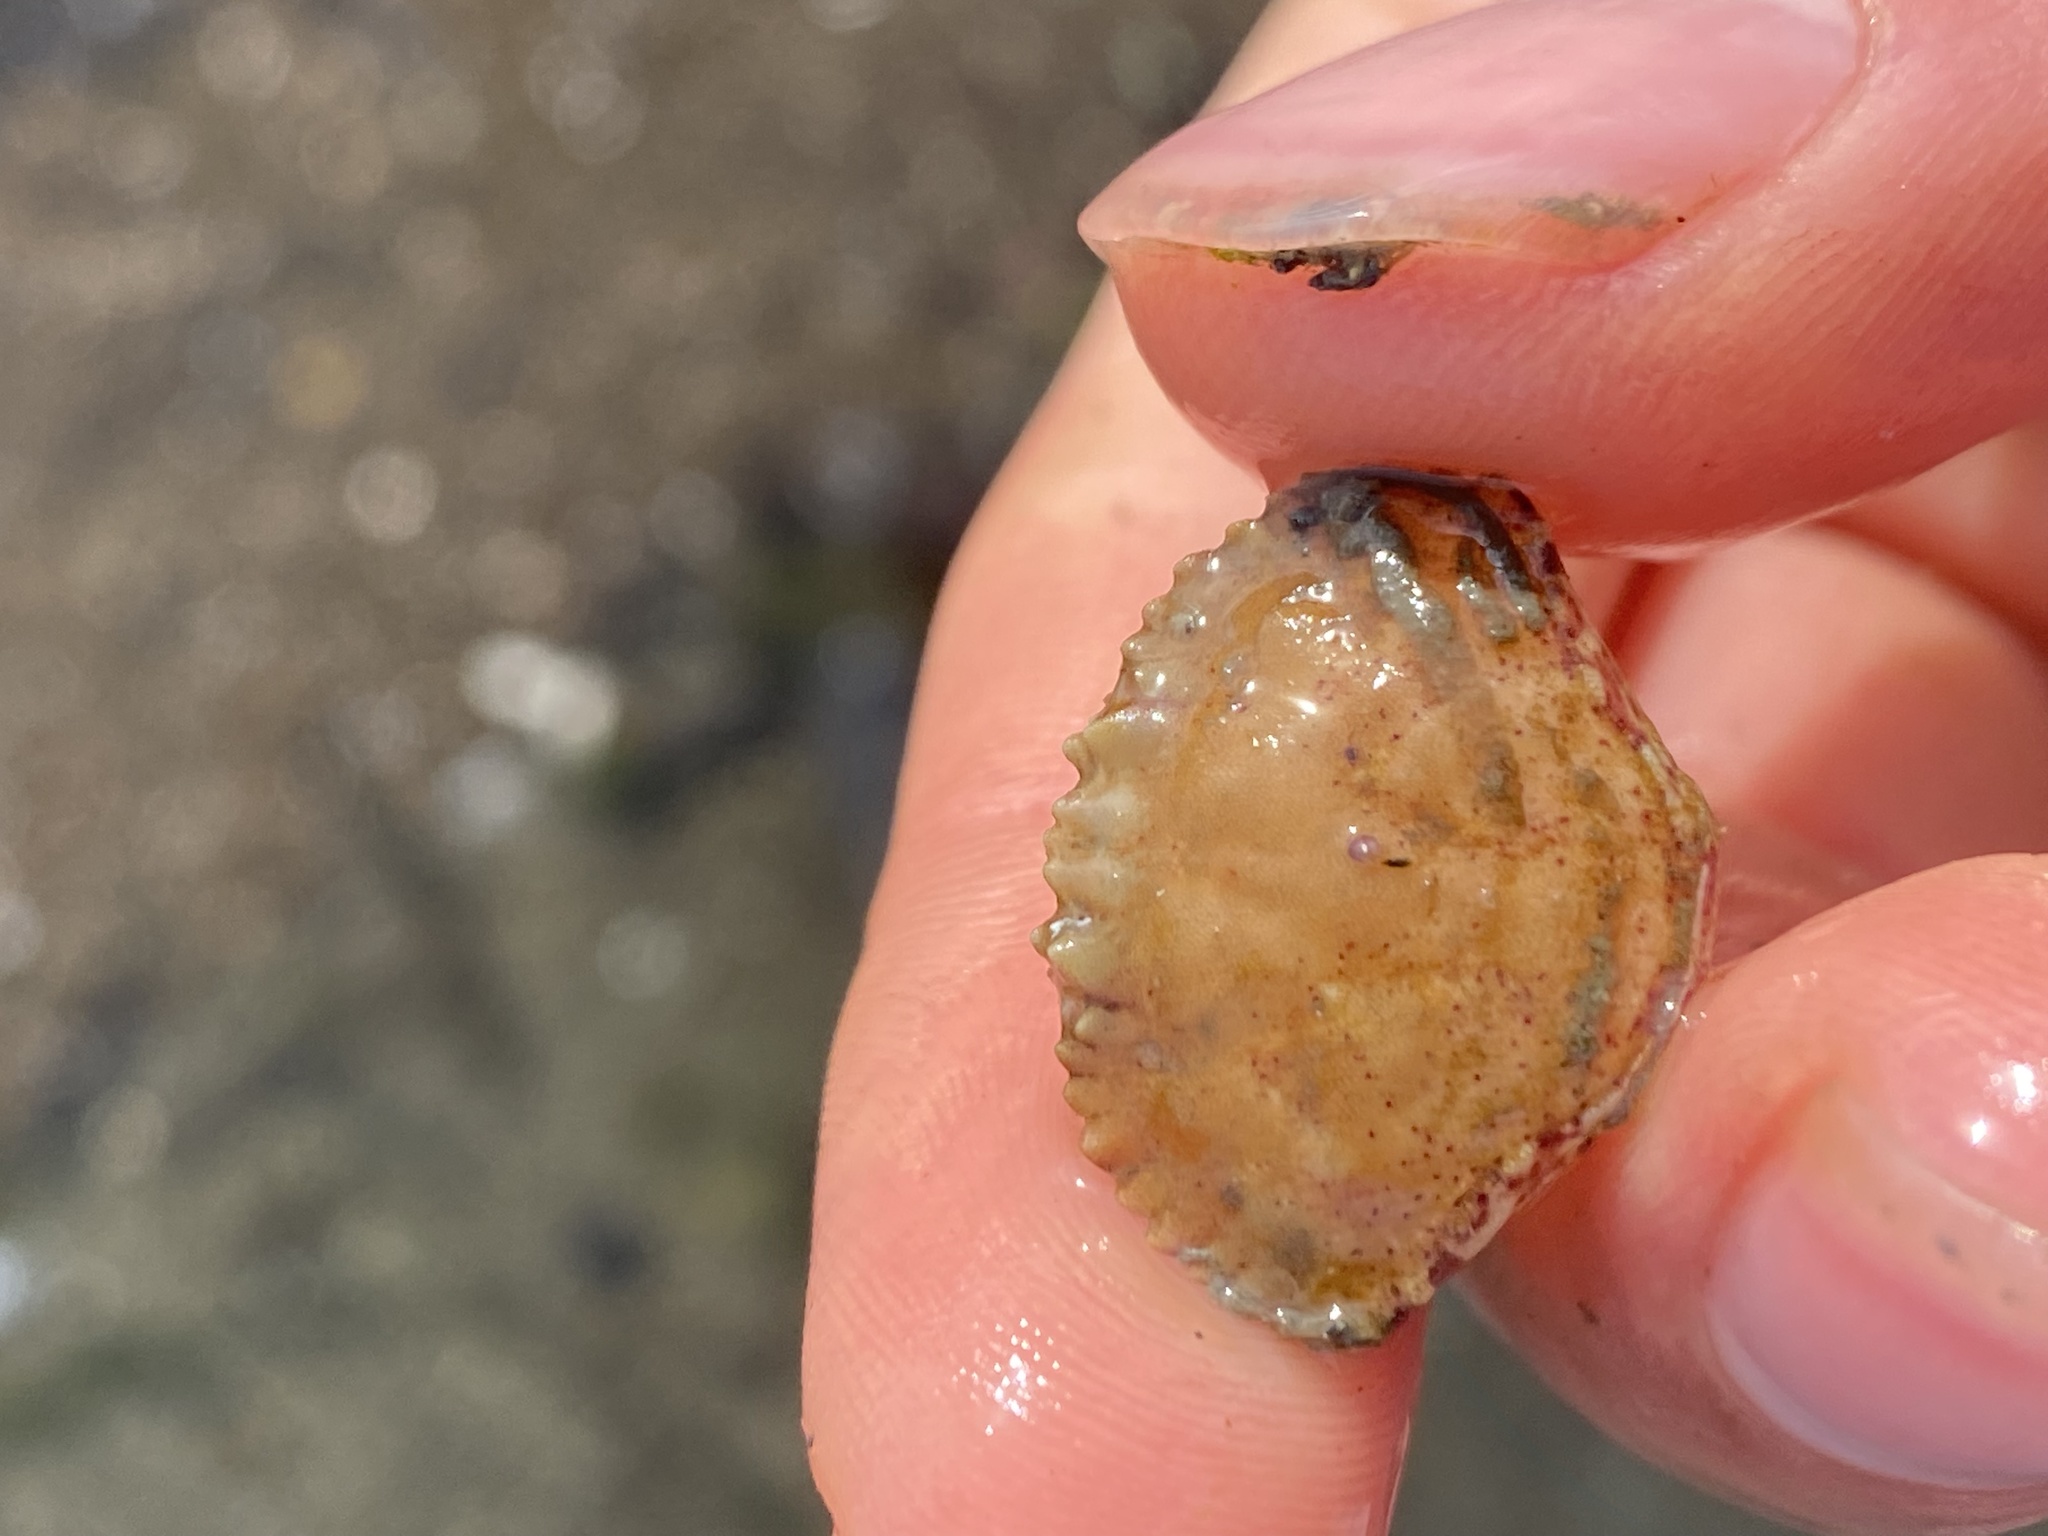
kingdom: Animalia
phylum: Arthropoda
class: Malacostraca
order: Decapoda
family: Cancridae
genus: Romaleon
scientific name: Romaleon antennarium
